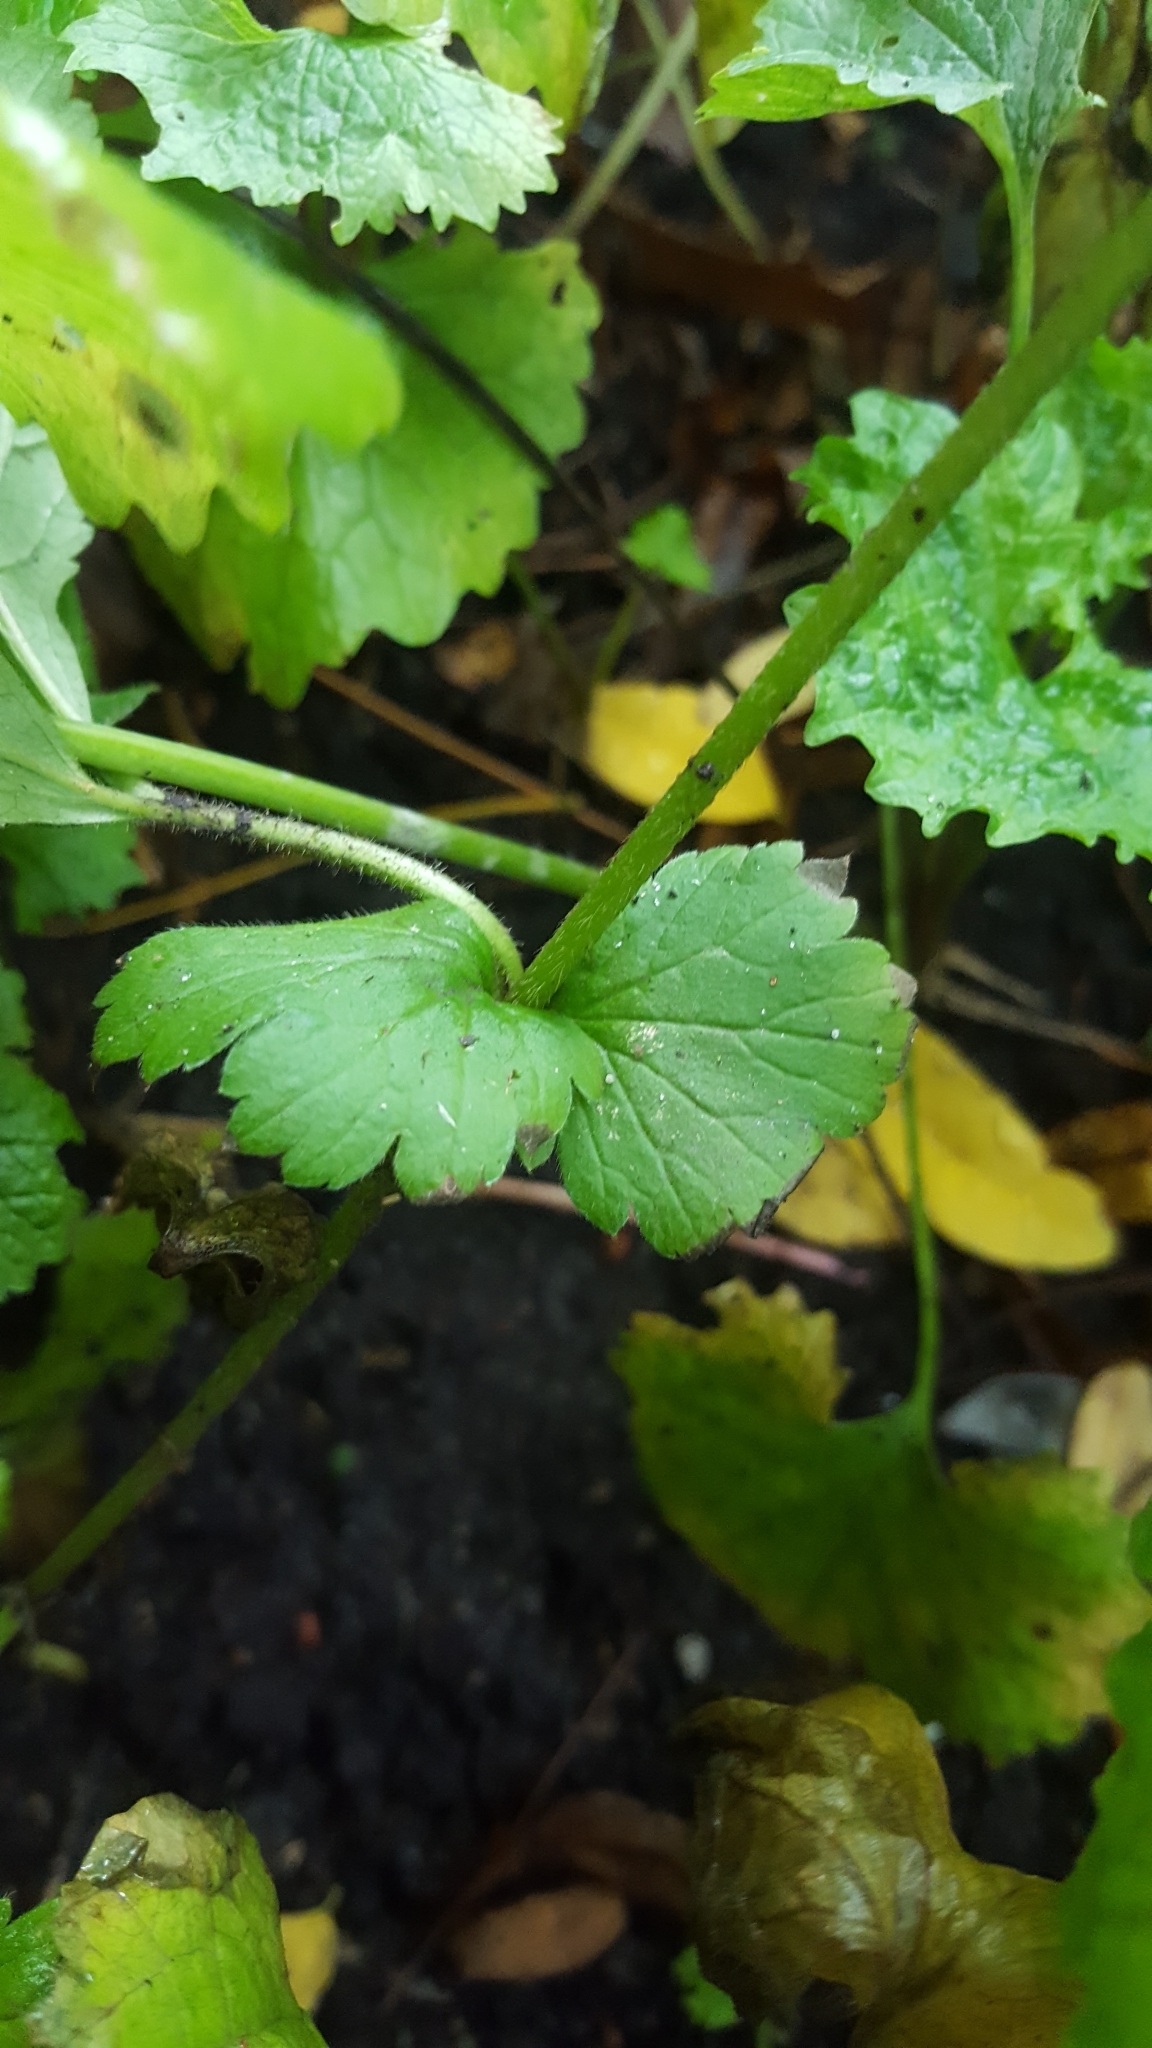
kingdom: Plantae
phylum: Tracheophyta
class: Magnoliopsida
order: Rosales
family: Rosaceae
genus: Geum
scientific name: Geum urbanum
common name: Wood avens
